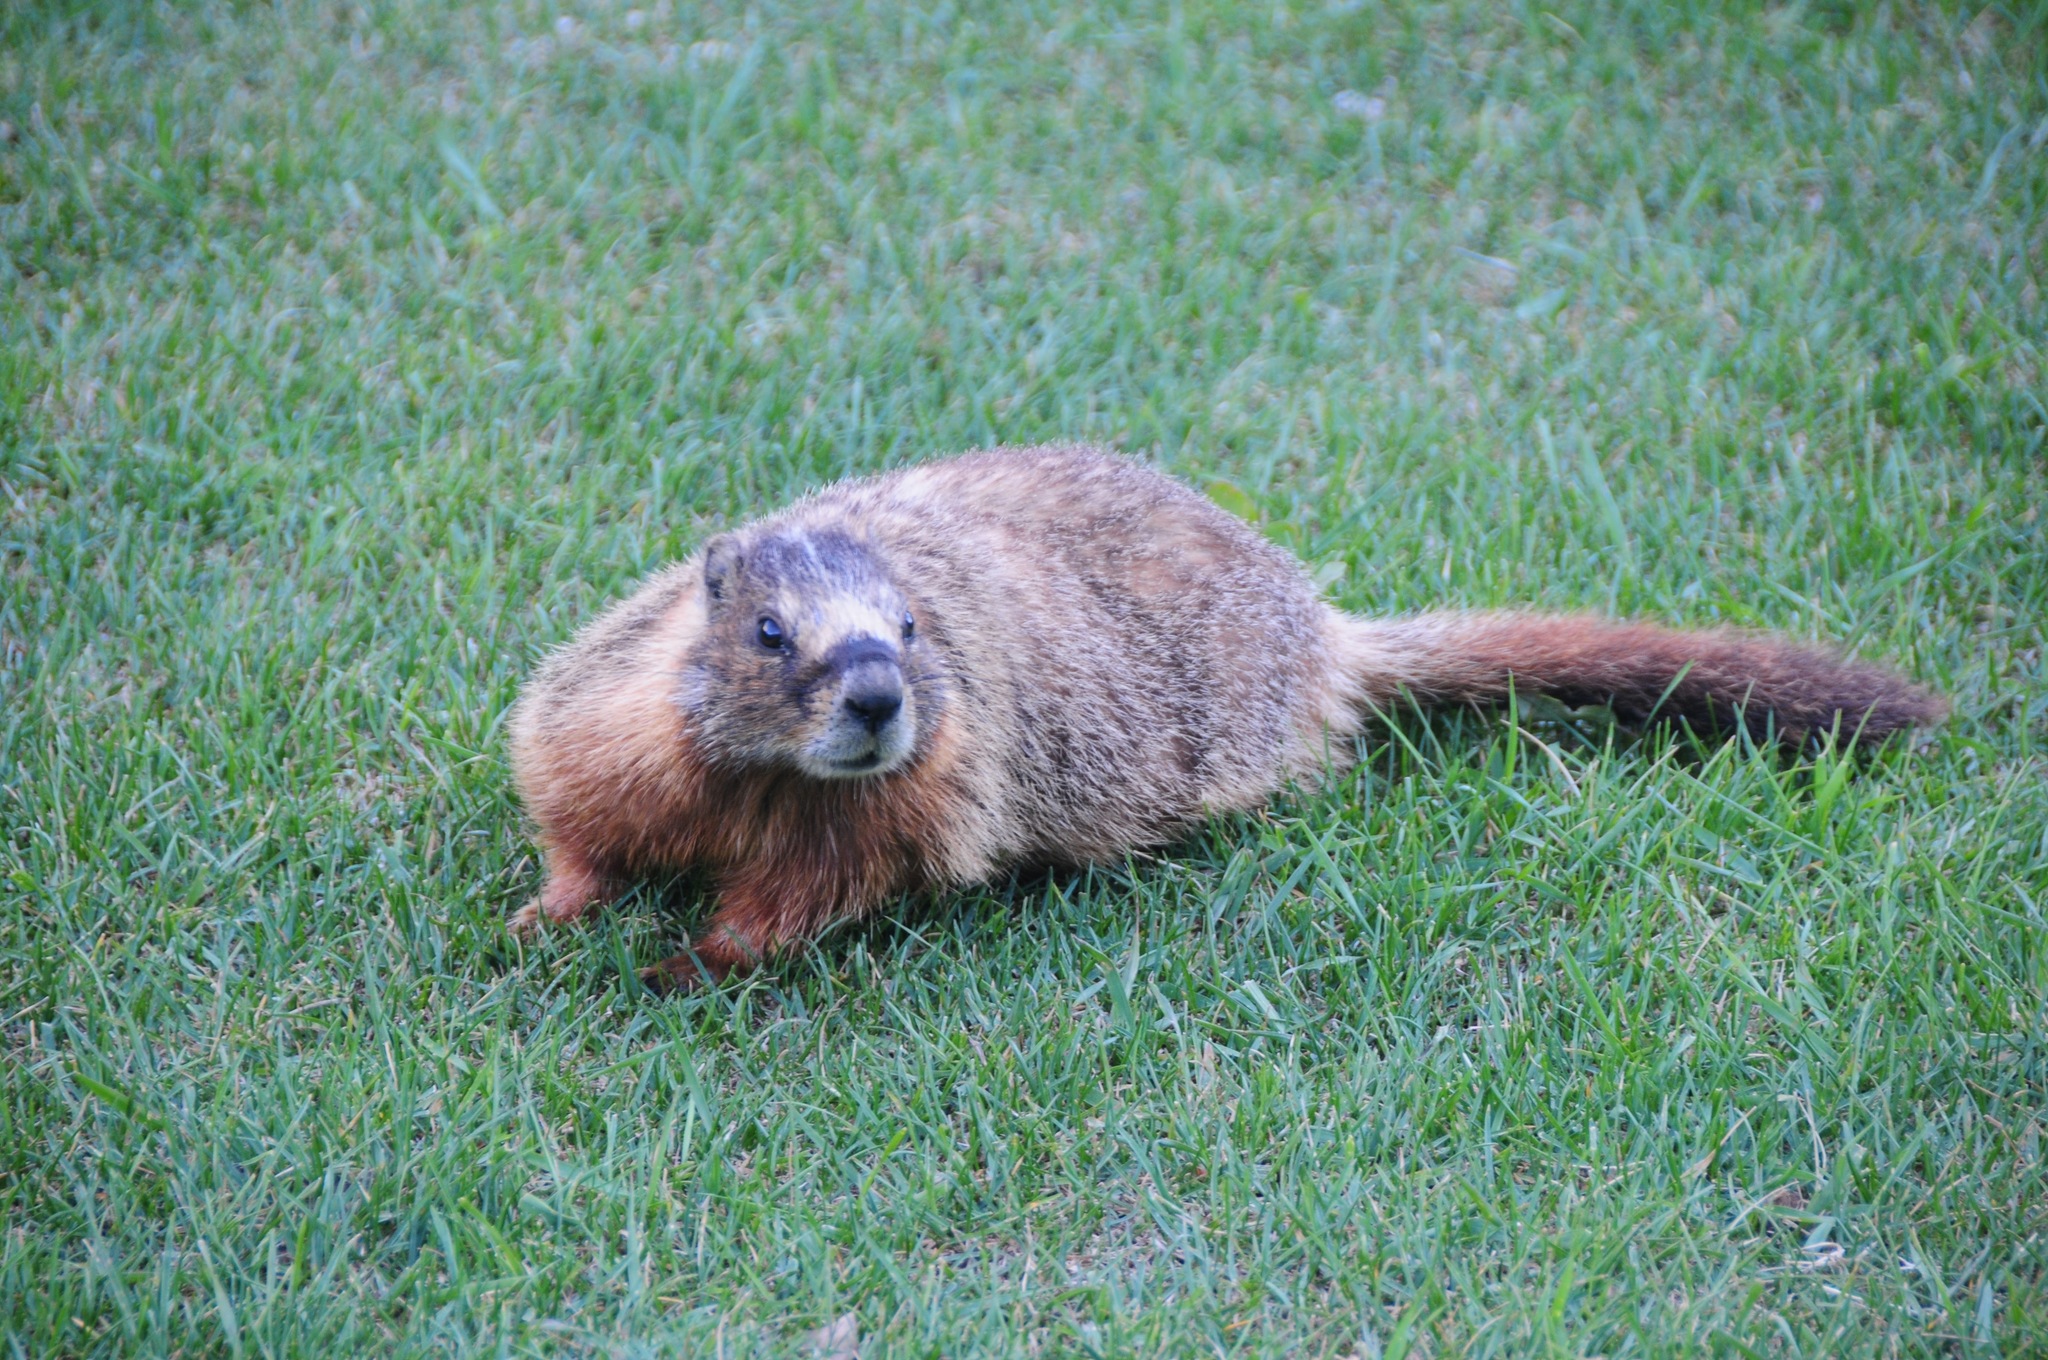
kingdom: Animalia
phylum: Chordata
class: Mammalia
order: Rodentia
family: Sciuridae
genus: Marmota
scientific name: Marmota flaviventris
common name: Yellow-bellied marmot
